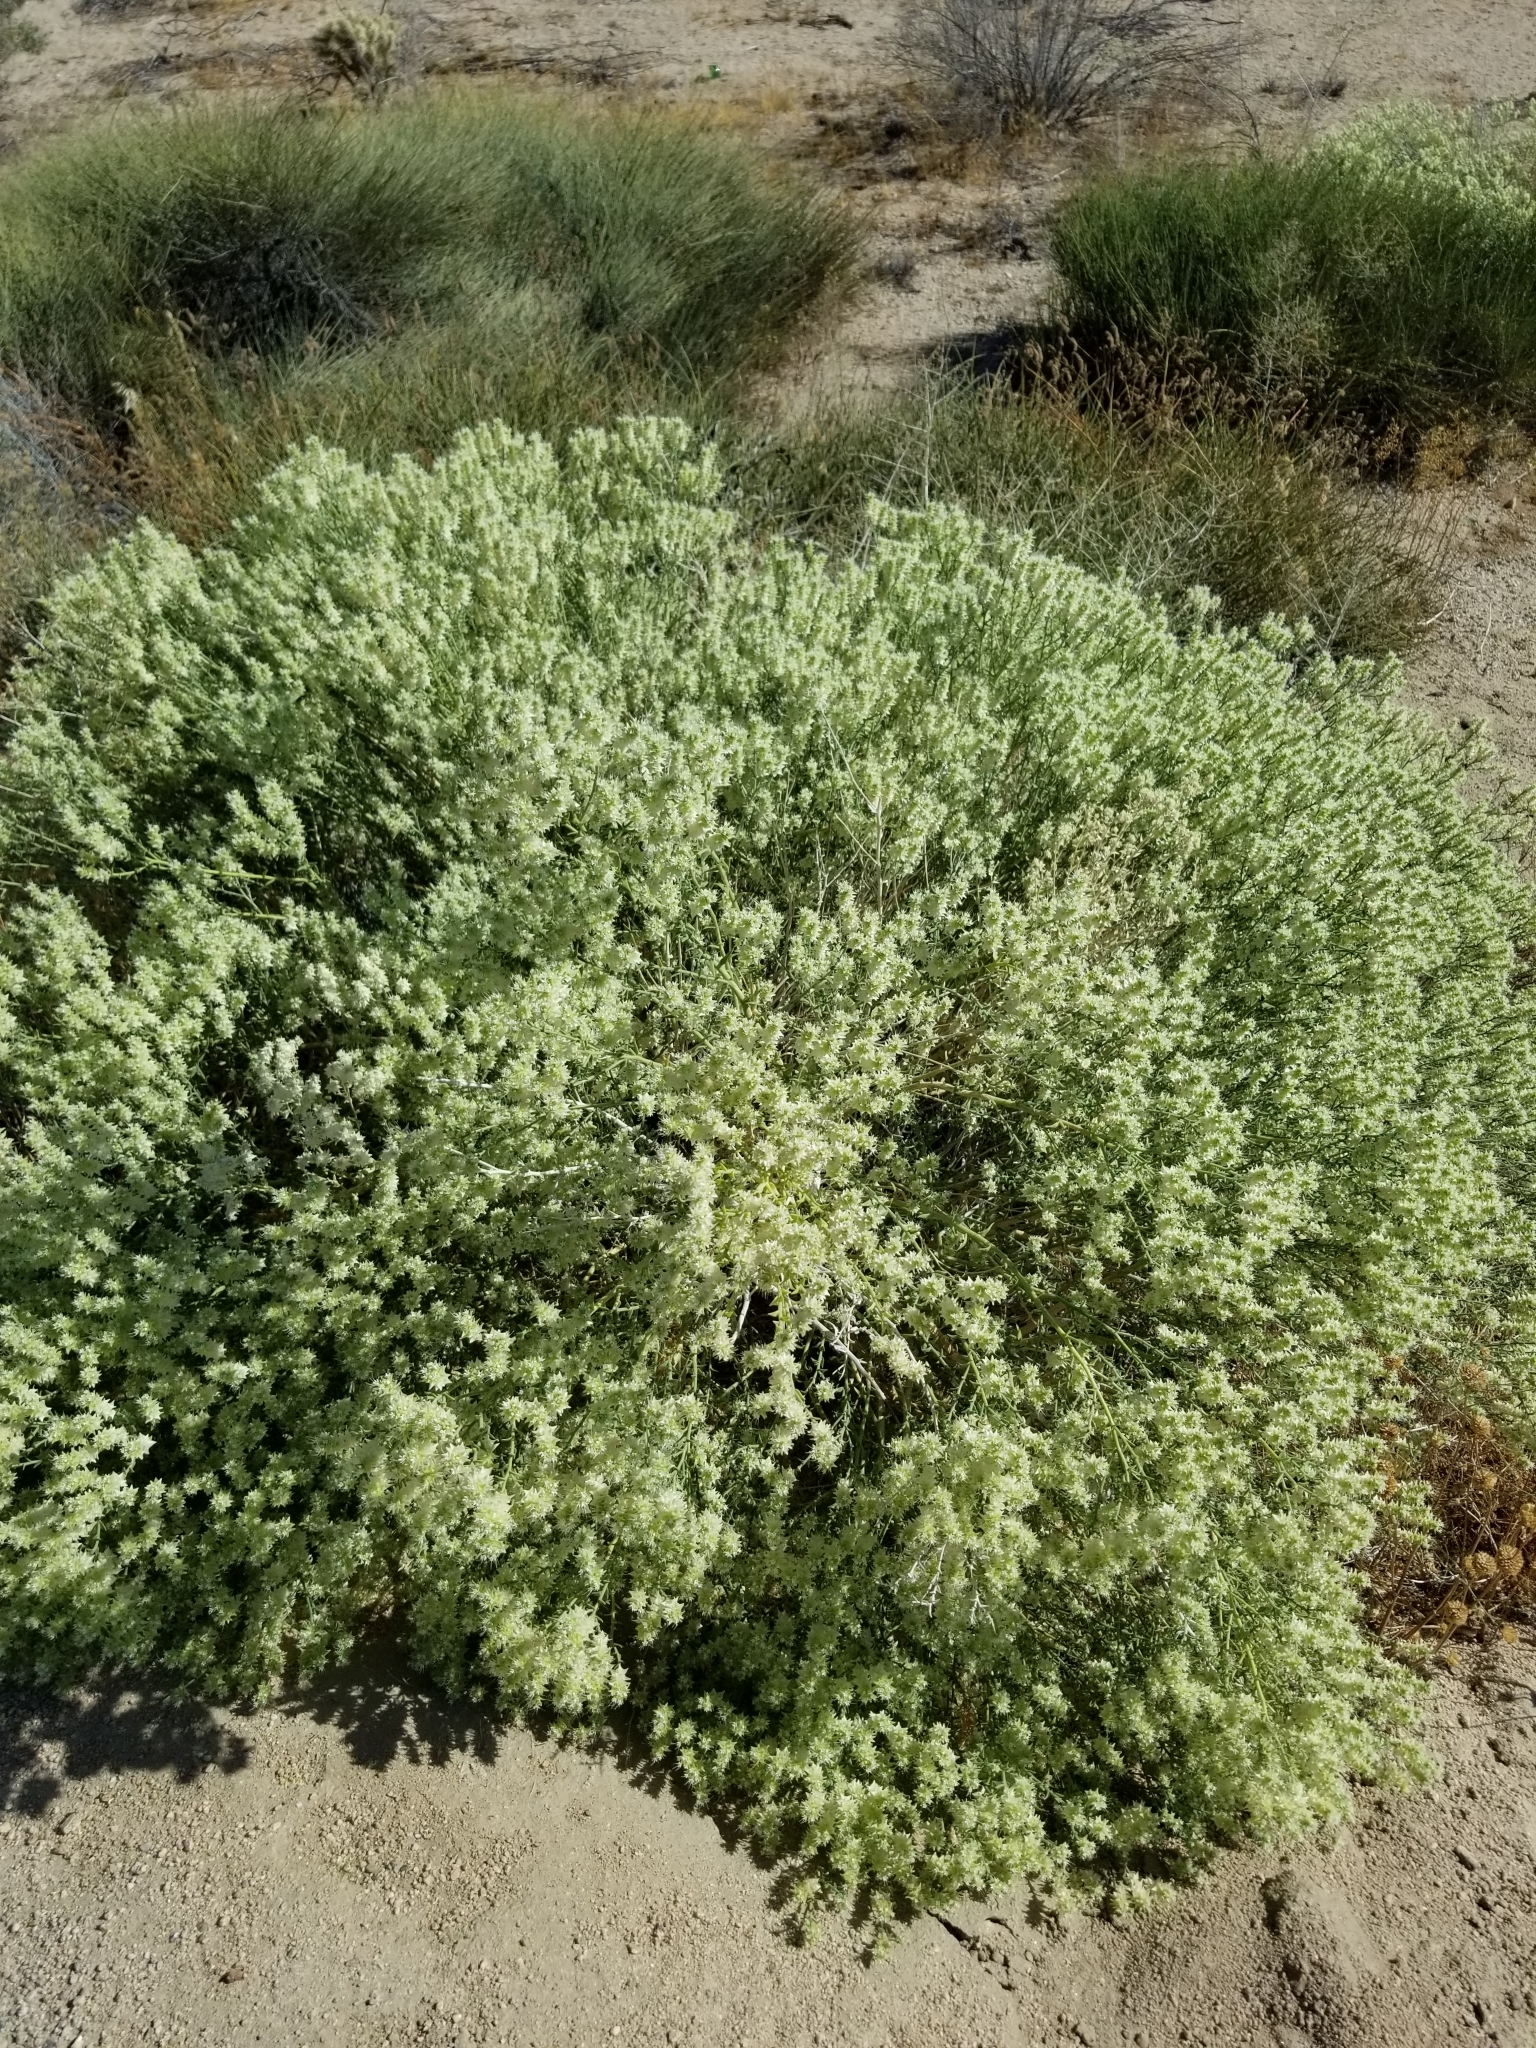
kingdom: Plantae
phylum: Tracheophyta
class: Magnoliopsida
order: Cornales
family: Loasaceae
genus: Petalonyx
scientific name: Petalonyx thurberi
